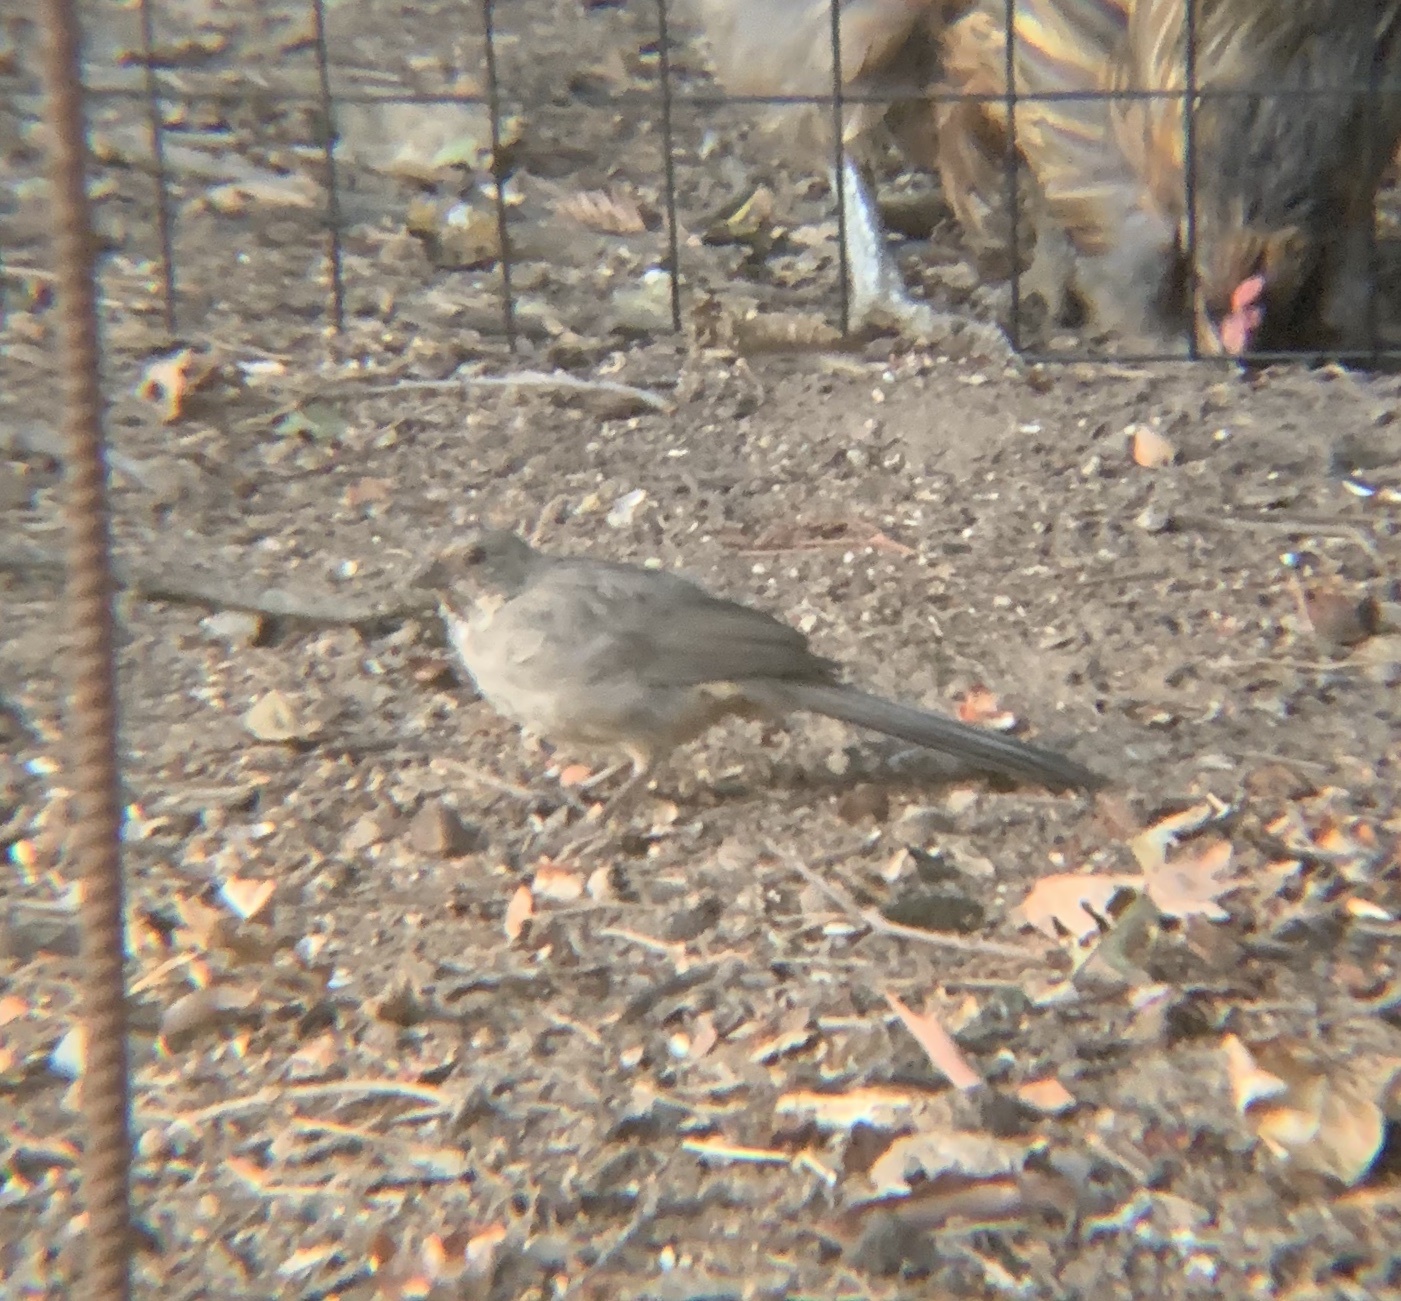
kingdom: Animalia
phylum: Chordata
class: Aves
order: Passeriformes
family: Passerellidae
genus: Melozone
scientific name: Melozone crissalis
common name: California towhee
